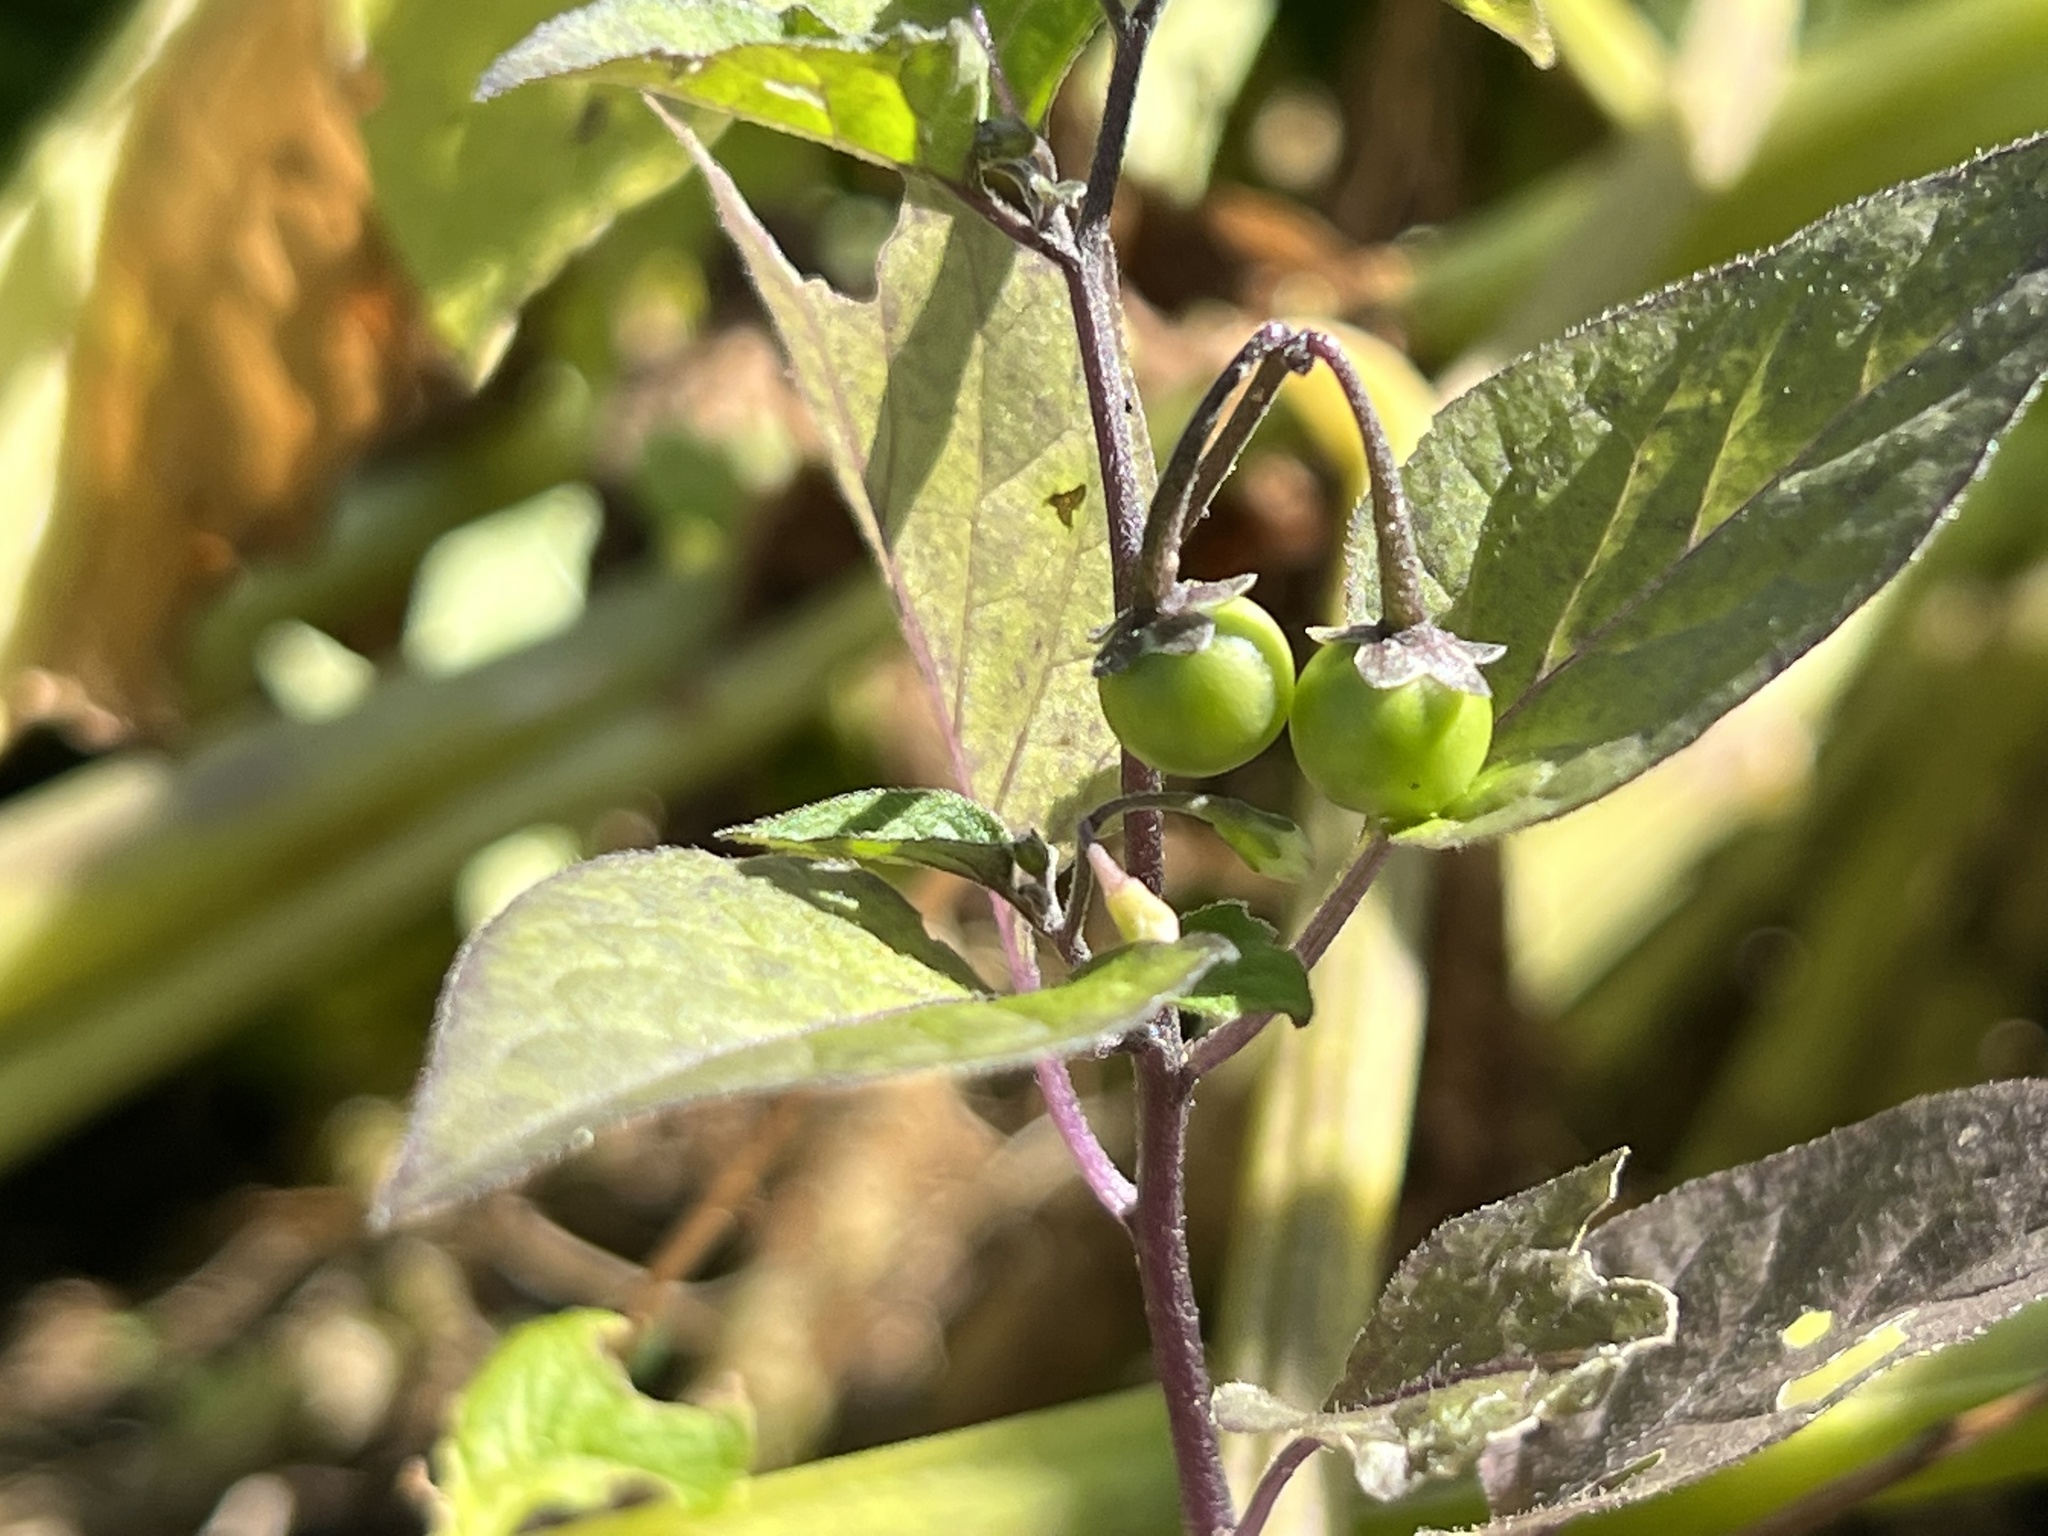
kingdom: Plantae
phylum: Tracheophyta
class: Magnoliopsida
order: Solanales
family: Solanaceae
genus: Solanum
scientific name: Solanum nigrum
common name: Black nightshade
